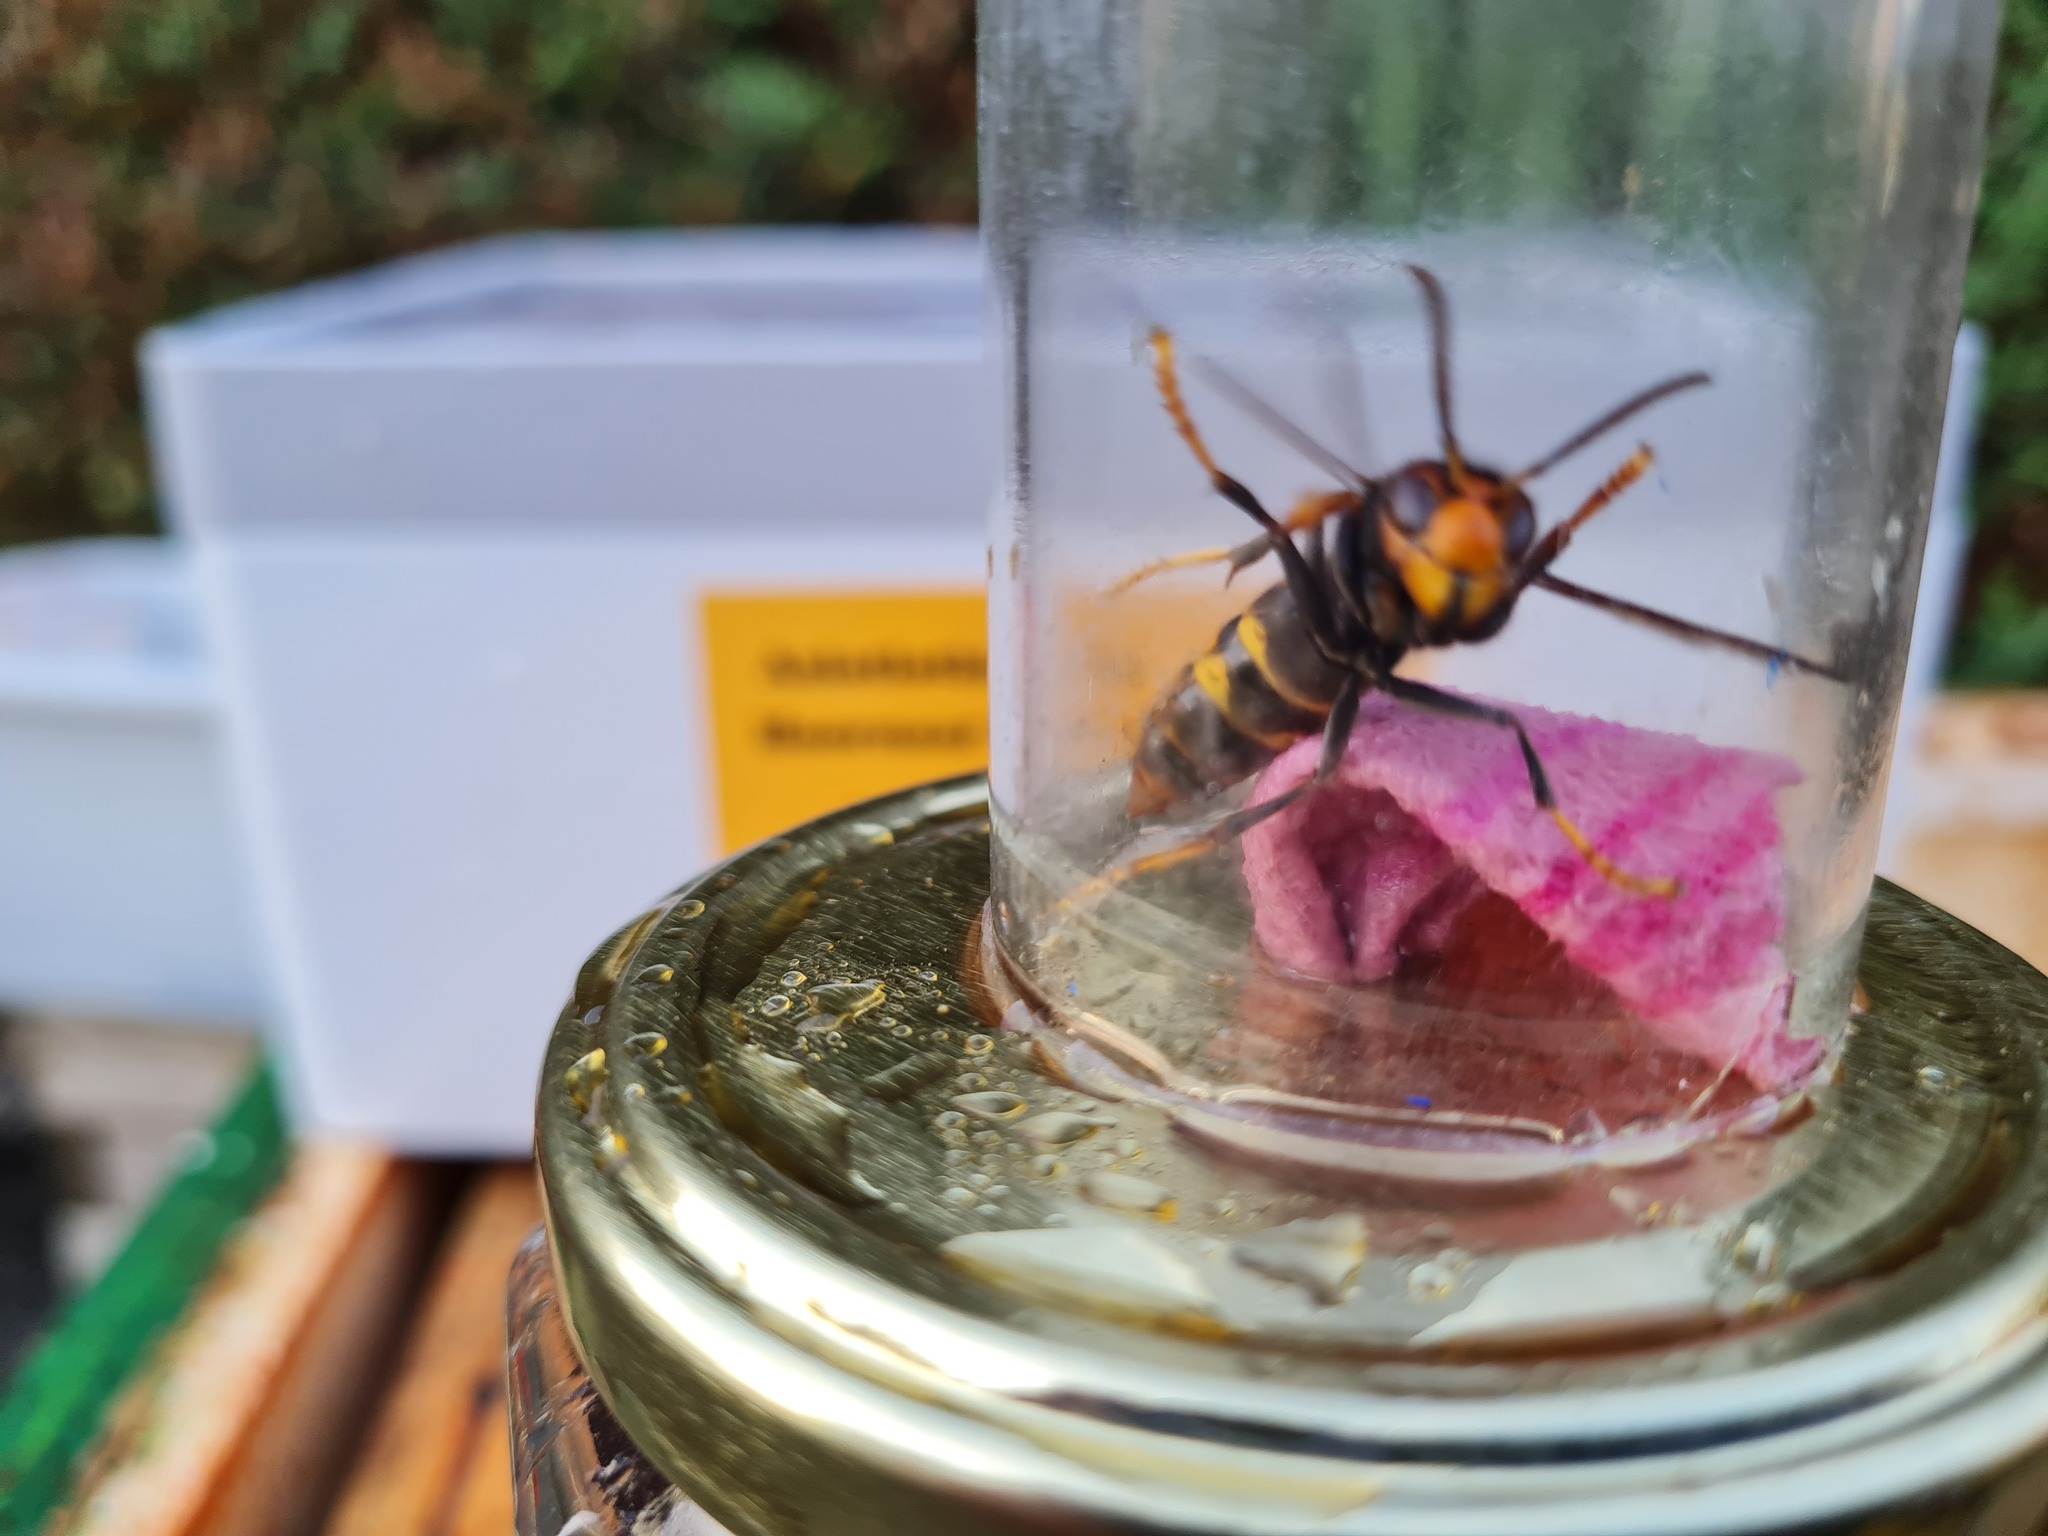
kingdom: Animalia
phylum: Arthropoda
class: Insecta
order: Hymenoptera
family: Vespidae
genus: Vespa
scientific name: Vespa velutina
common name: Asian hornet
